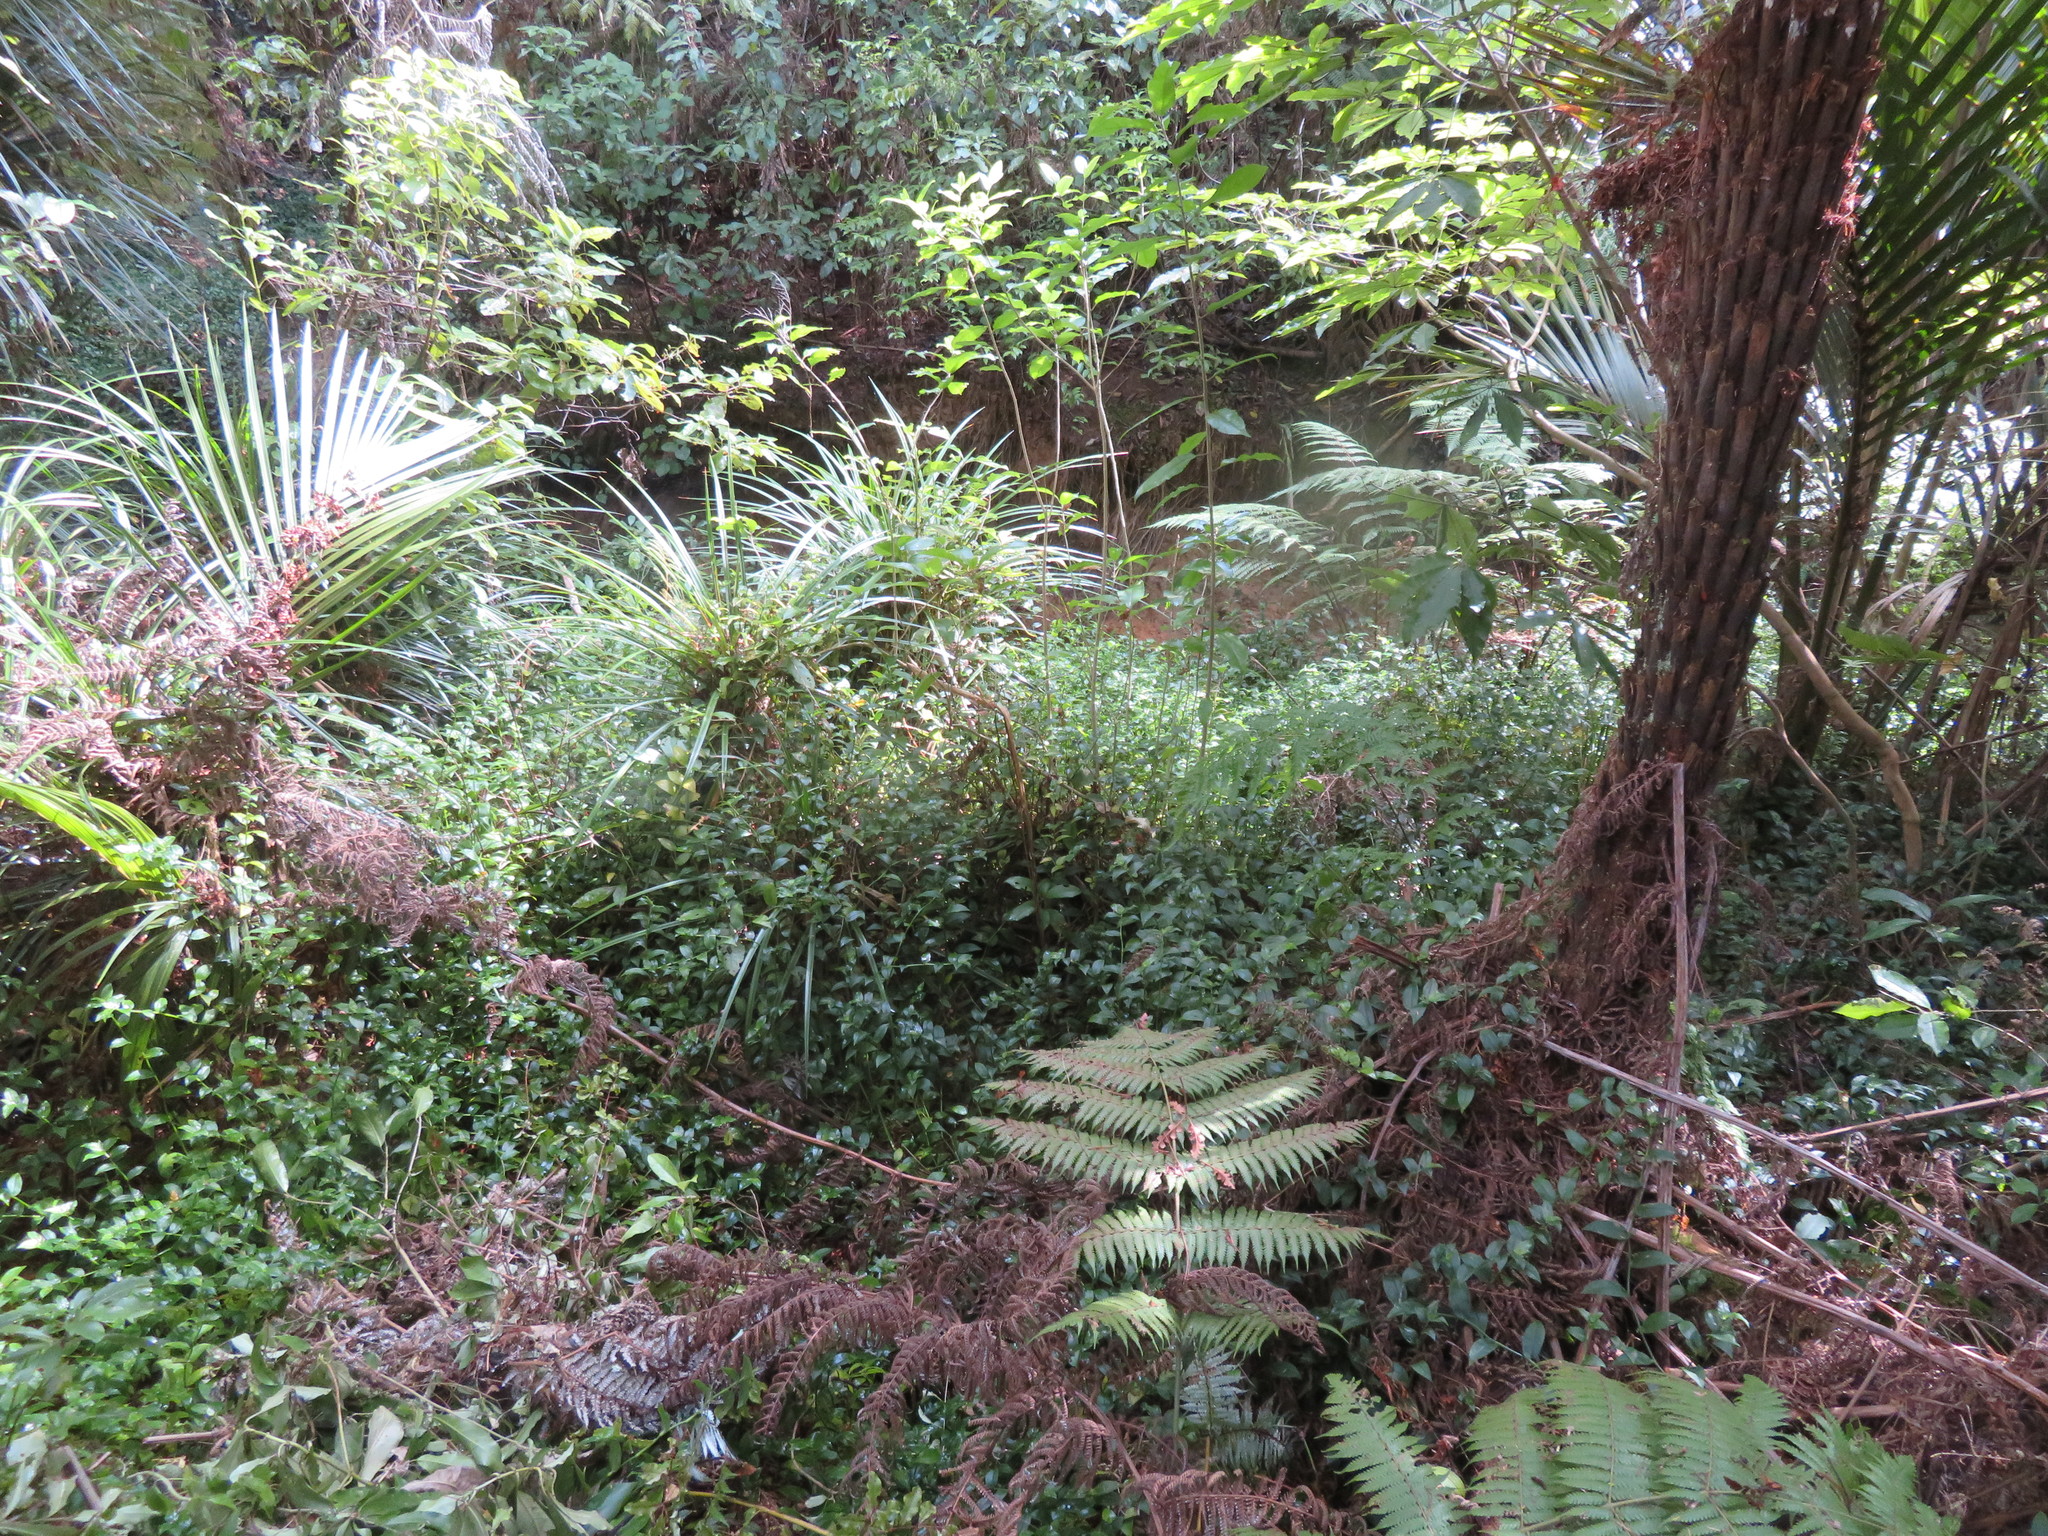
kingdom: Plantae
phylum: Tracheophyta
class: Liliopsida
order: Commelinales
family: Commelinaceae
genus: Tradescantia
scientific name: Tradescantia fluminensis
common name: Wandering-jew
